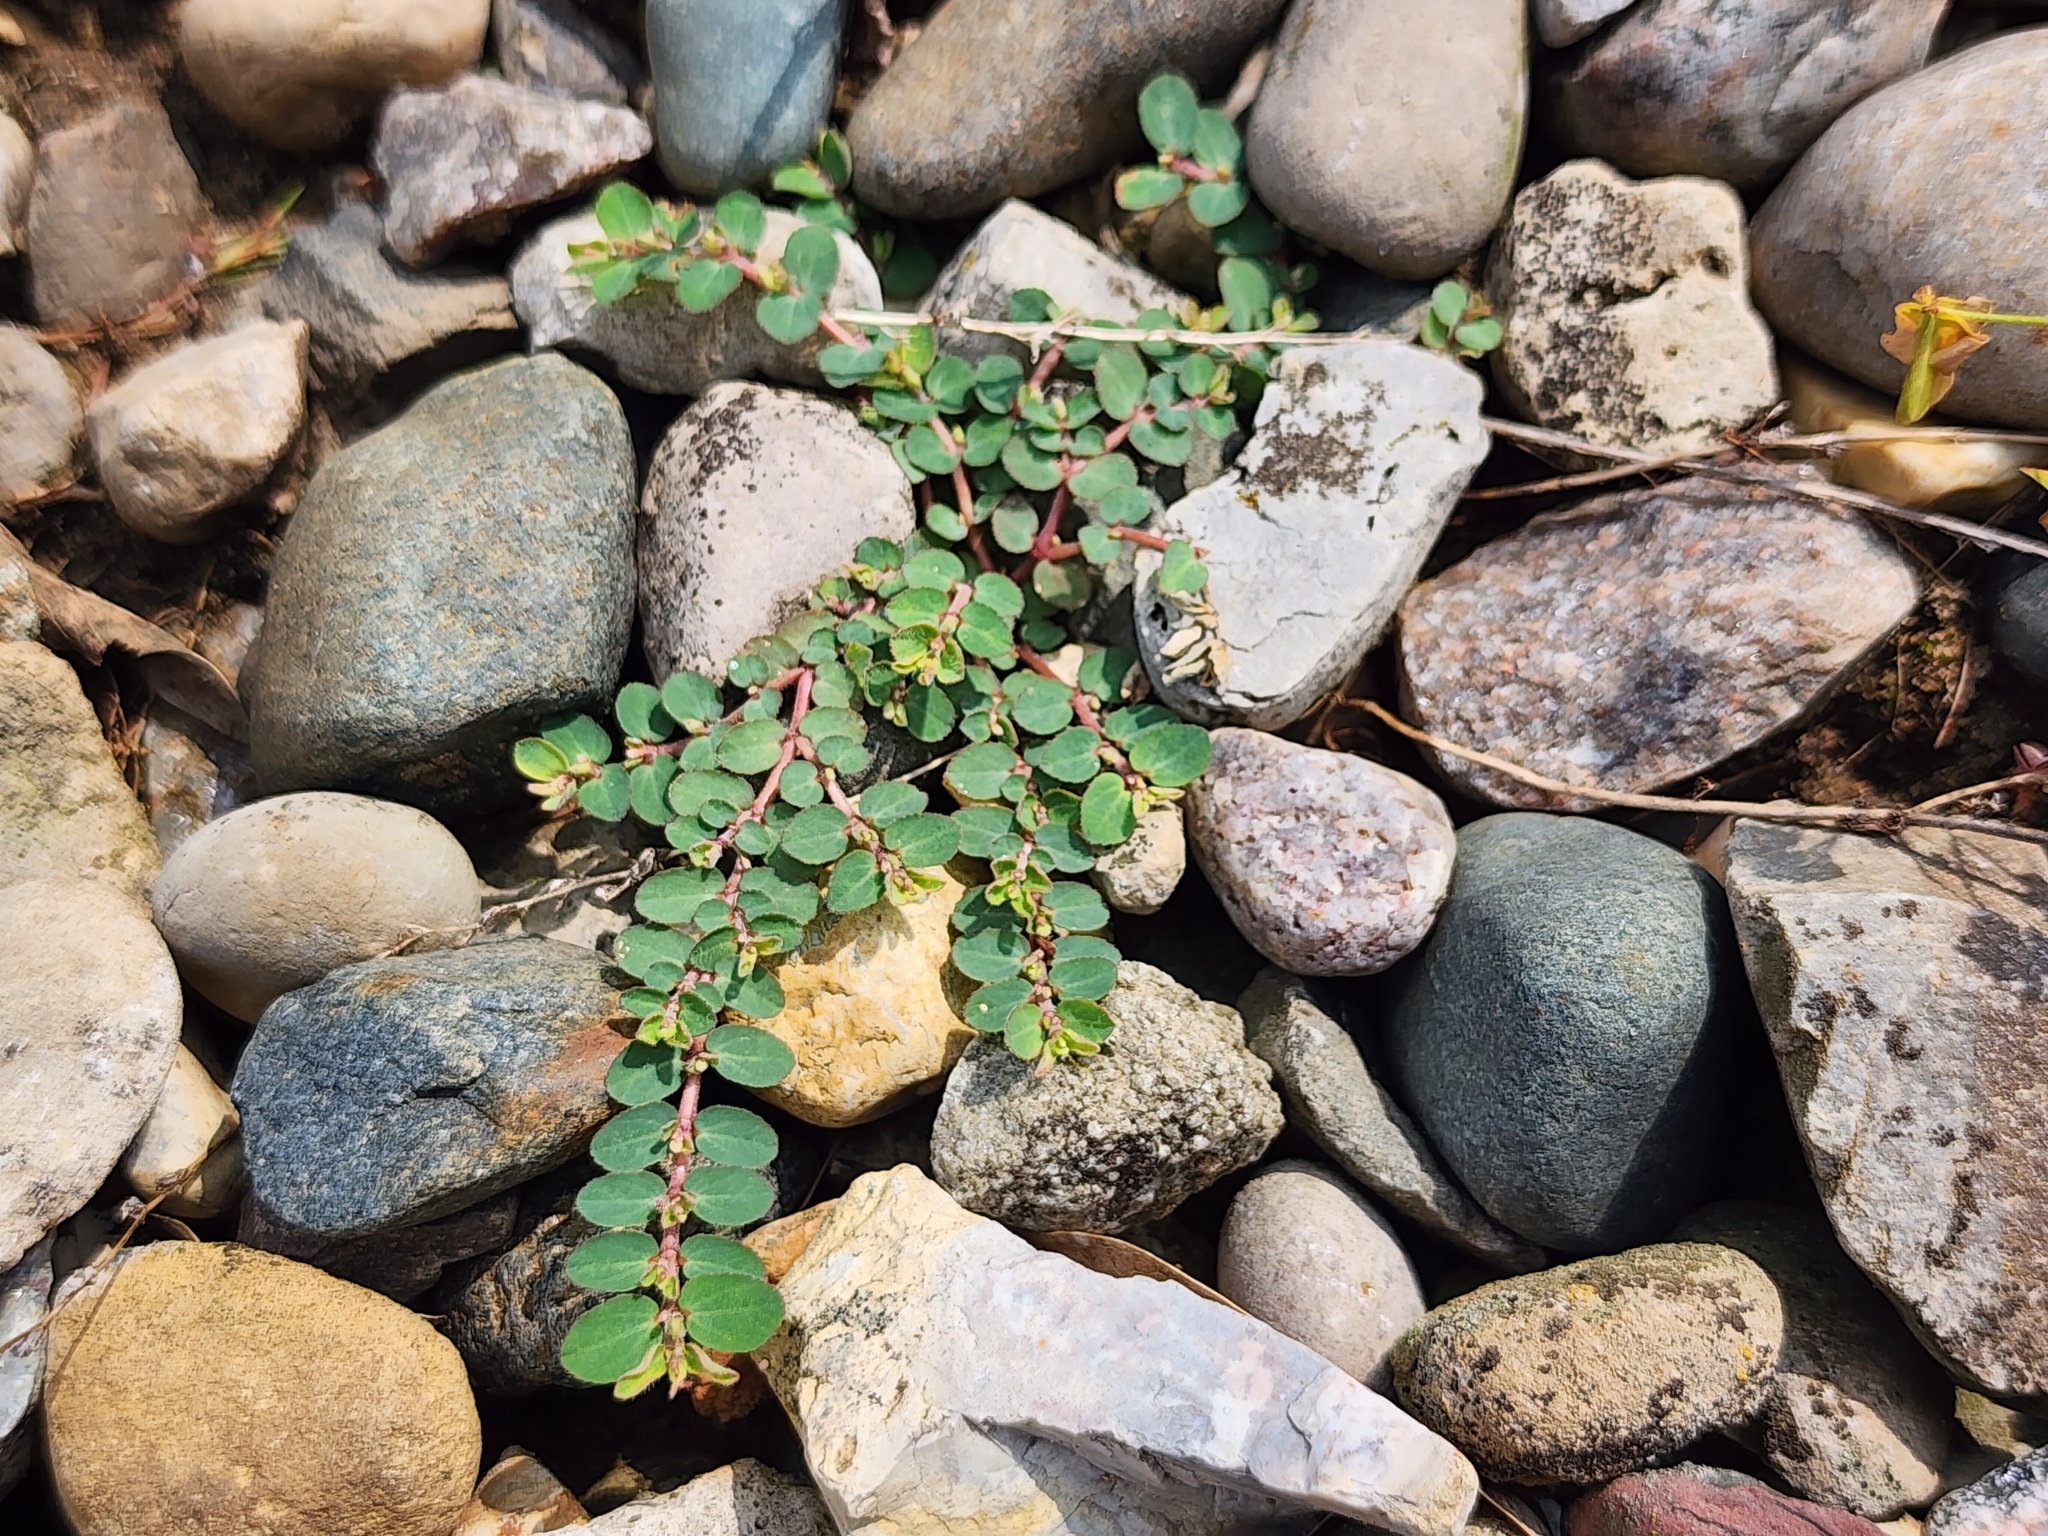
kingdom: Plantae
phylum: Tracheophyta
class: Magnoliopsida
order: Malpighiales
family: Euphorbiaceae
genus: Euphorbia
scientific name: Euphorbia prostrata
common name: Prostrate sandmat
